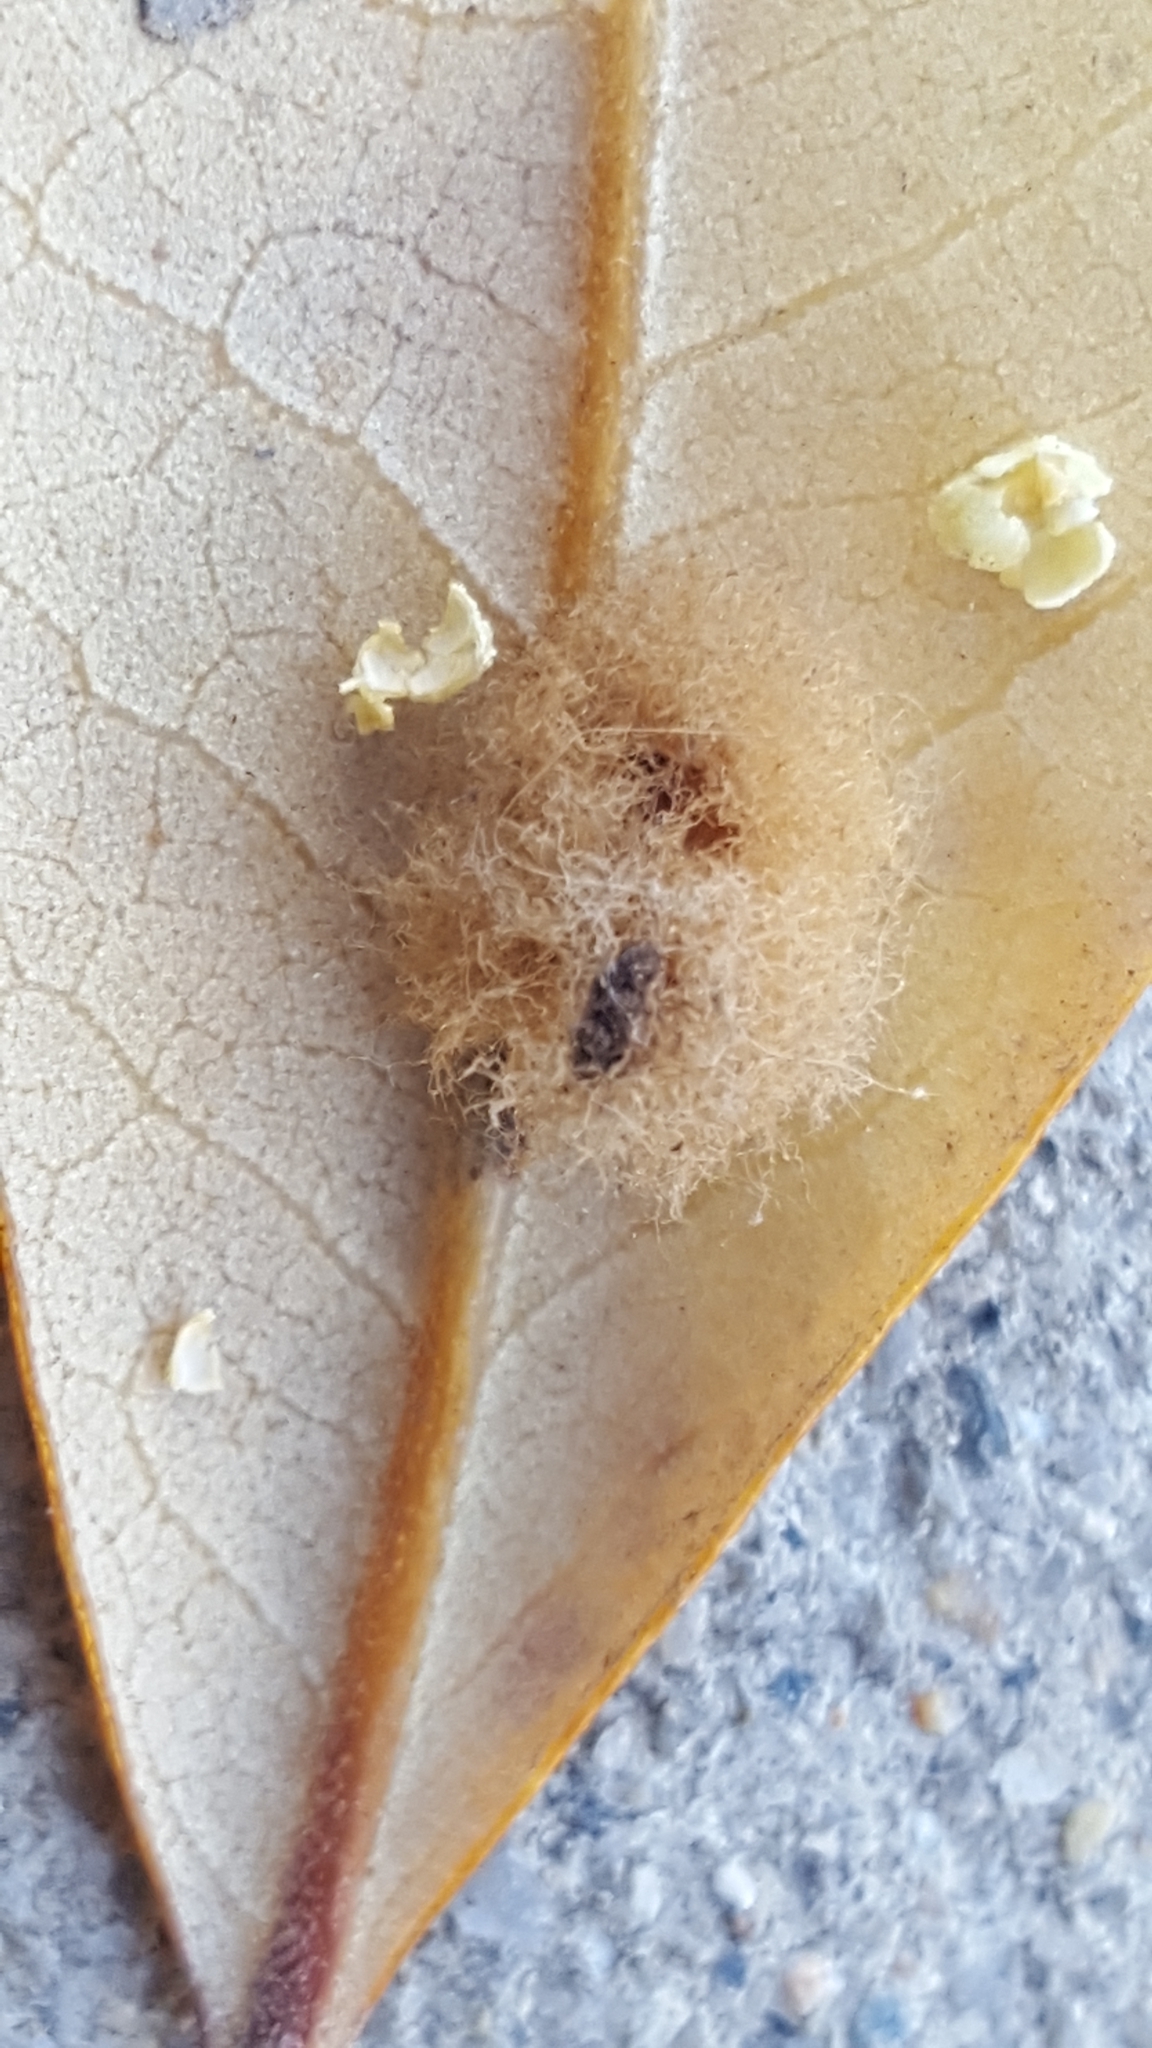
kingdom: Animalia
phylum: Arthropoda
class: Insecta
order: Hymenoptera
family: Cynipidae
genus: Andricus
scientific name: Andricus Druon quercuslanigerum
